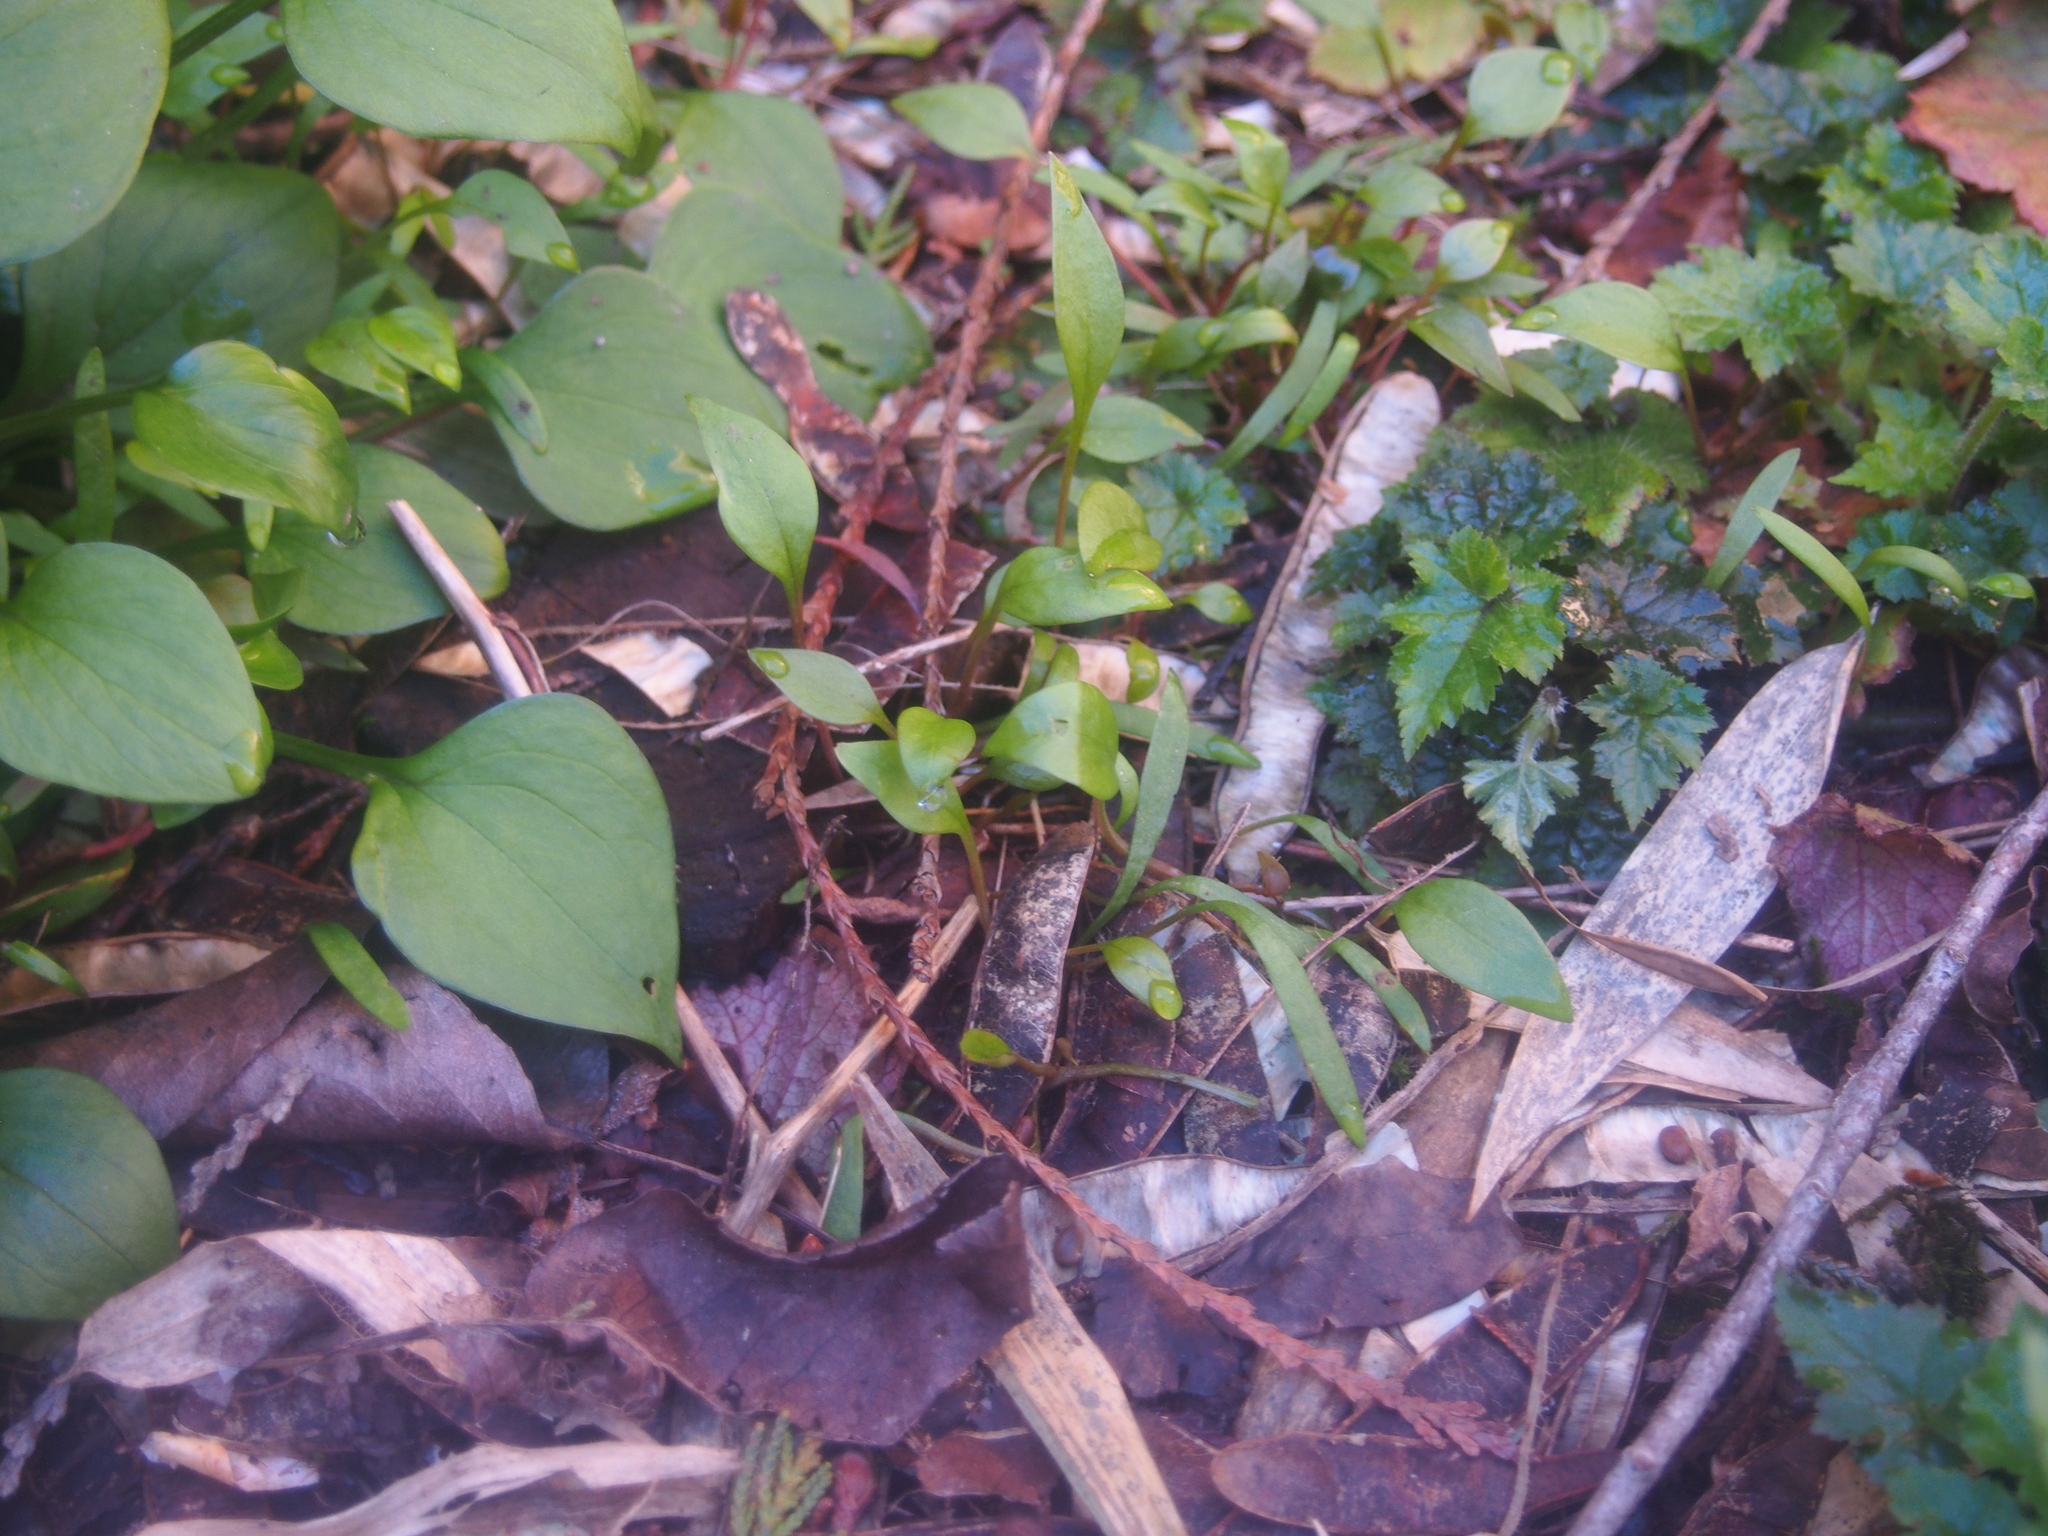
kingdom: Plantae
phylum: Tracheophyta
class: Magnoliopsida
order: Caryophyllales
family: Montiaceae
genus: Claytonia
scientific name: Claytonia sibirica
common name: Pink purslane
